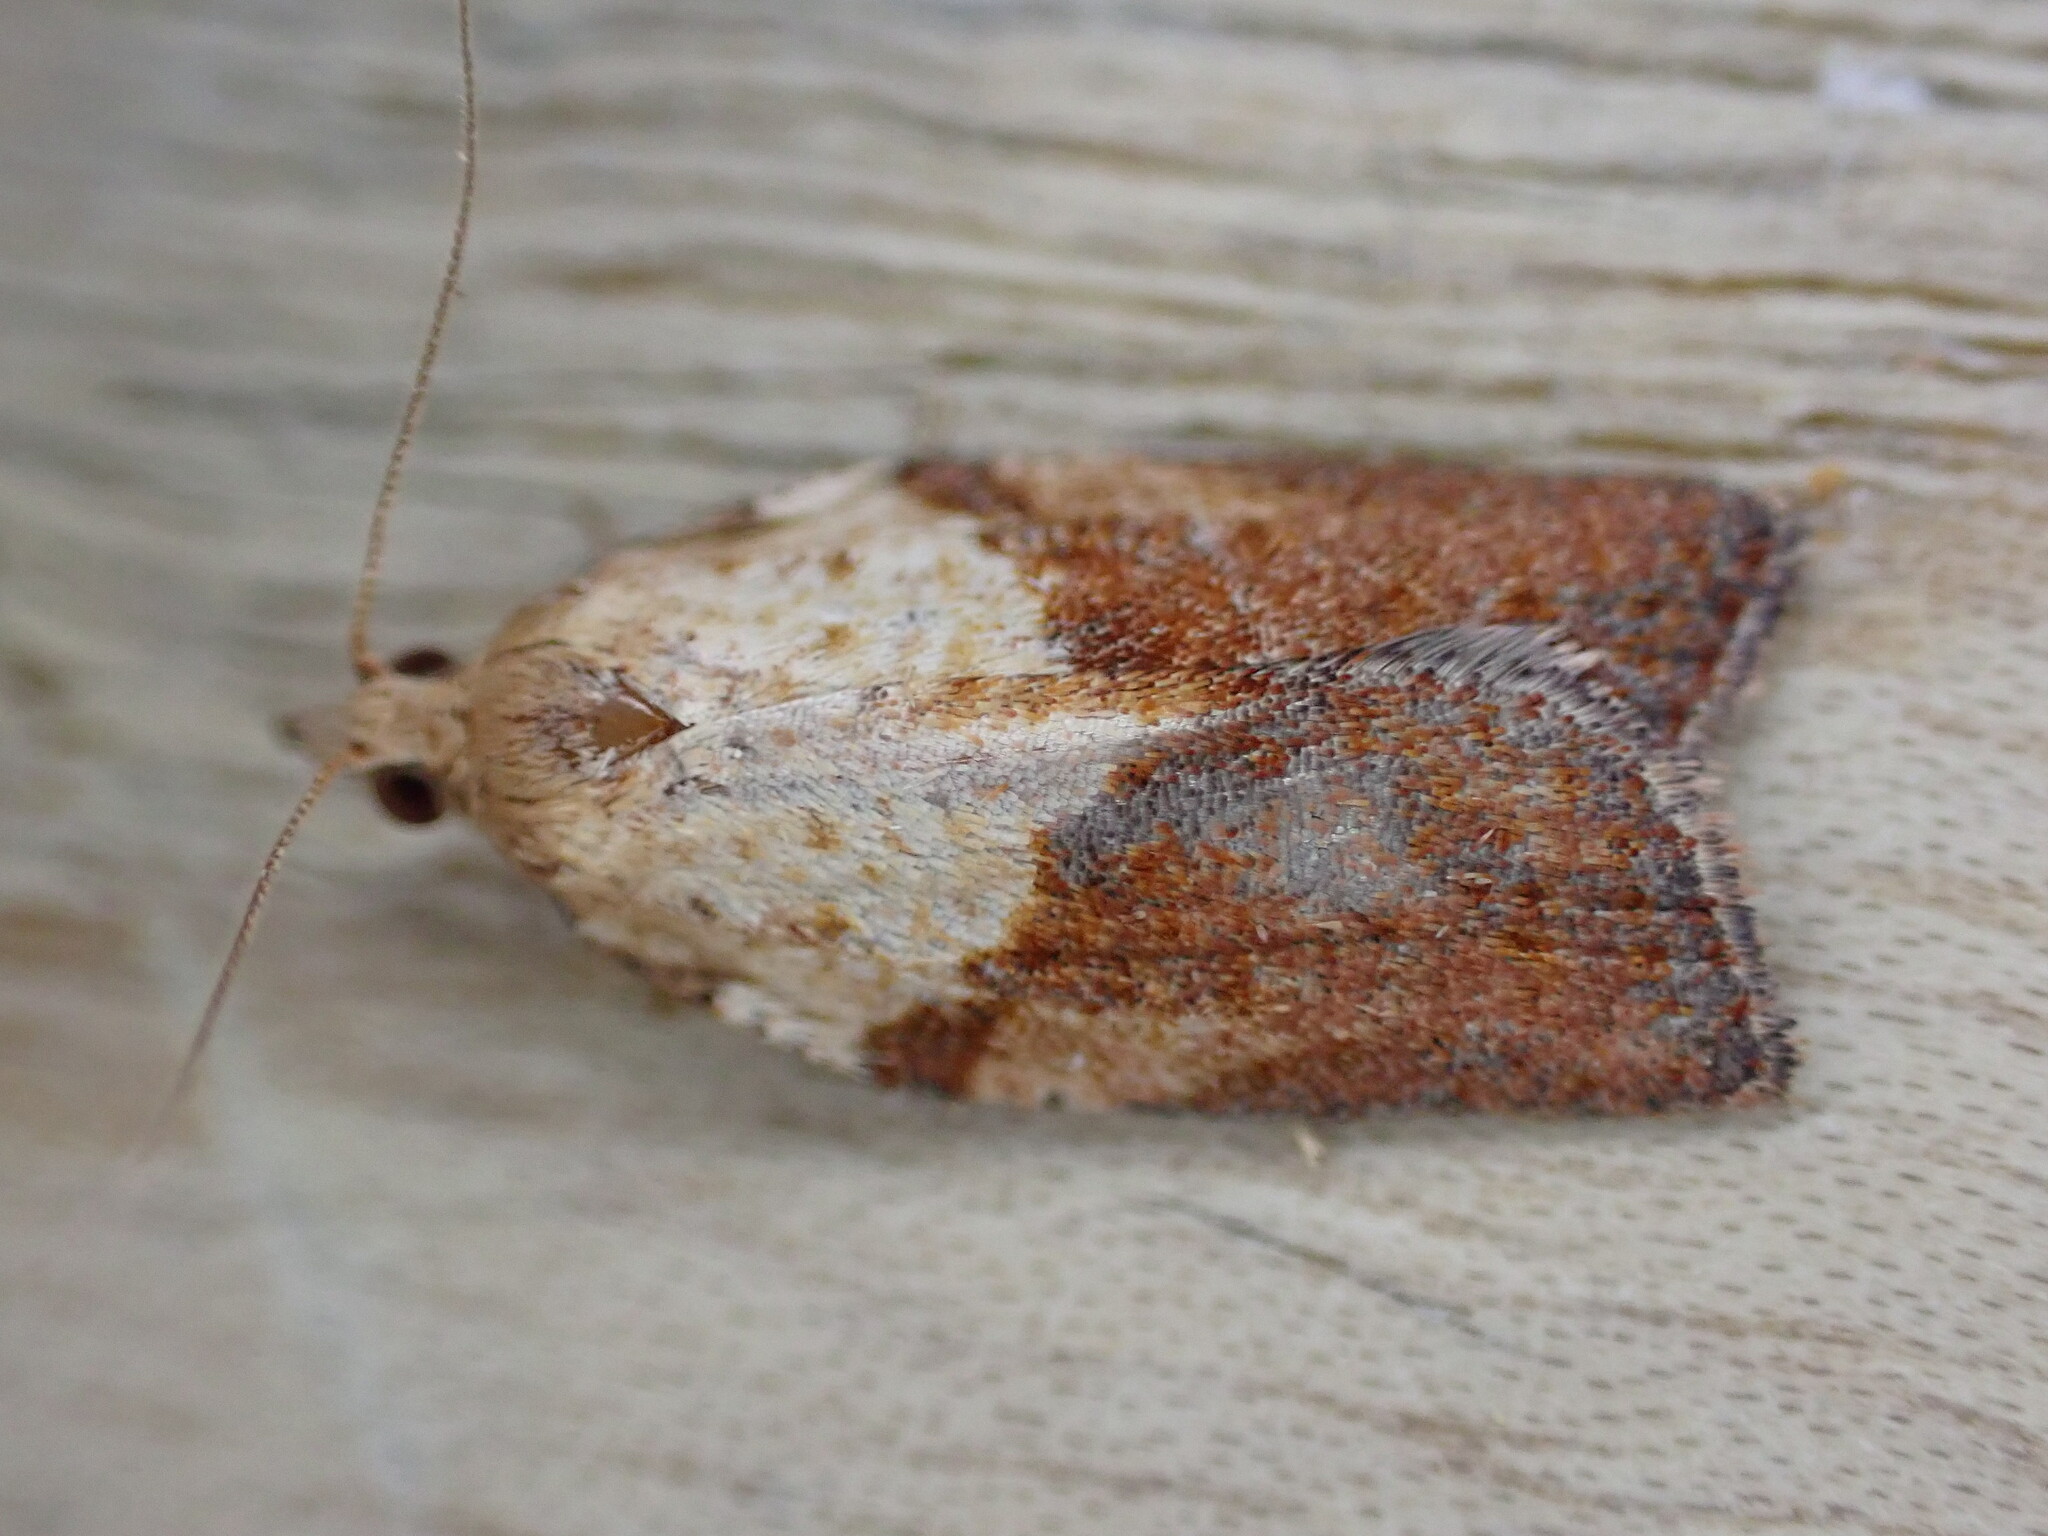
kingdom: Animalia
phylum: Arthropoda
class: Insecta
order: Lepidoptera
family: Tortricidae
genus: Epiphyas
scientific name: Epiphyas postvittana
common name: Light brown apple moth
